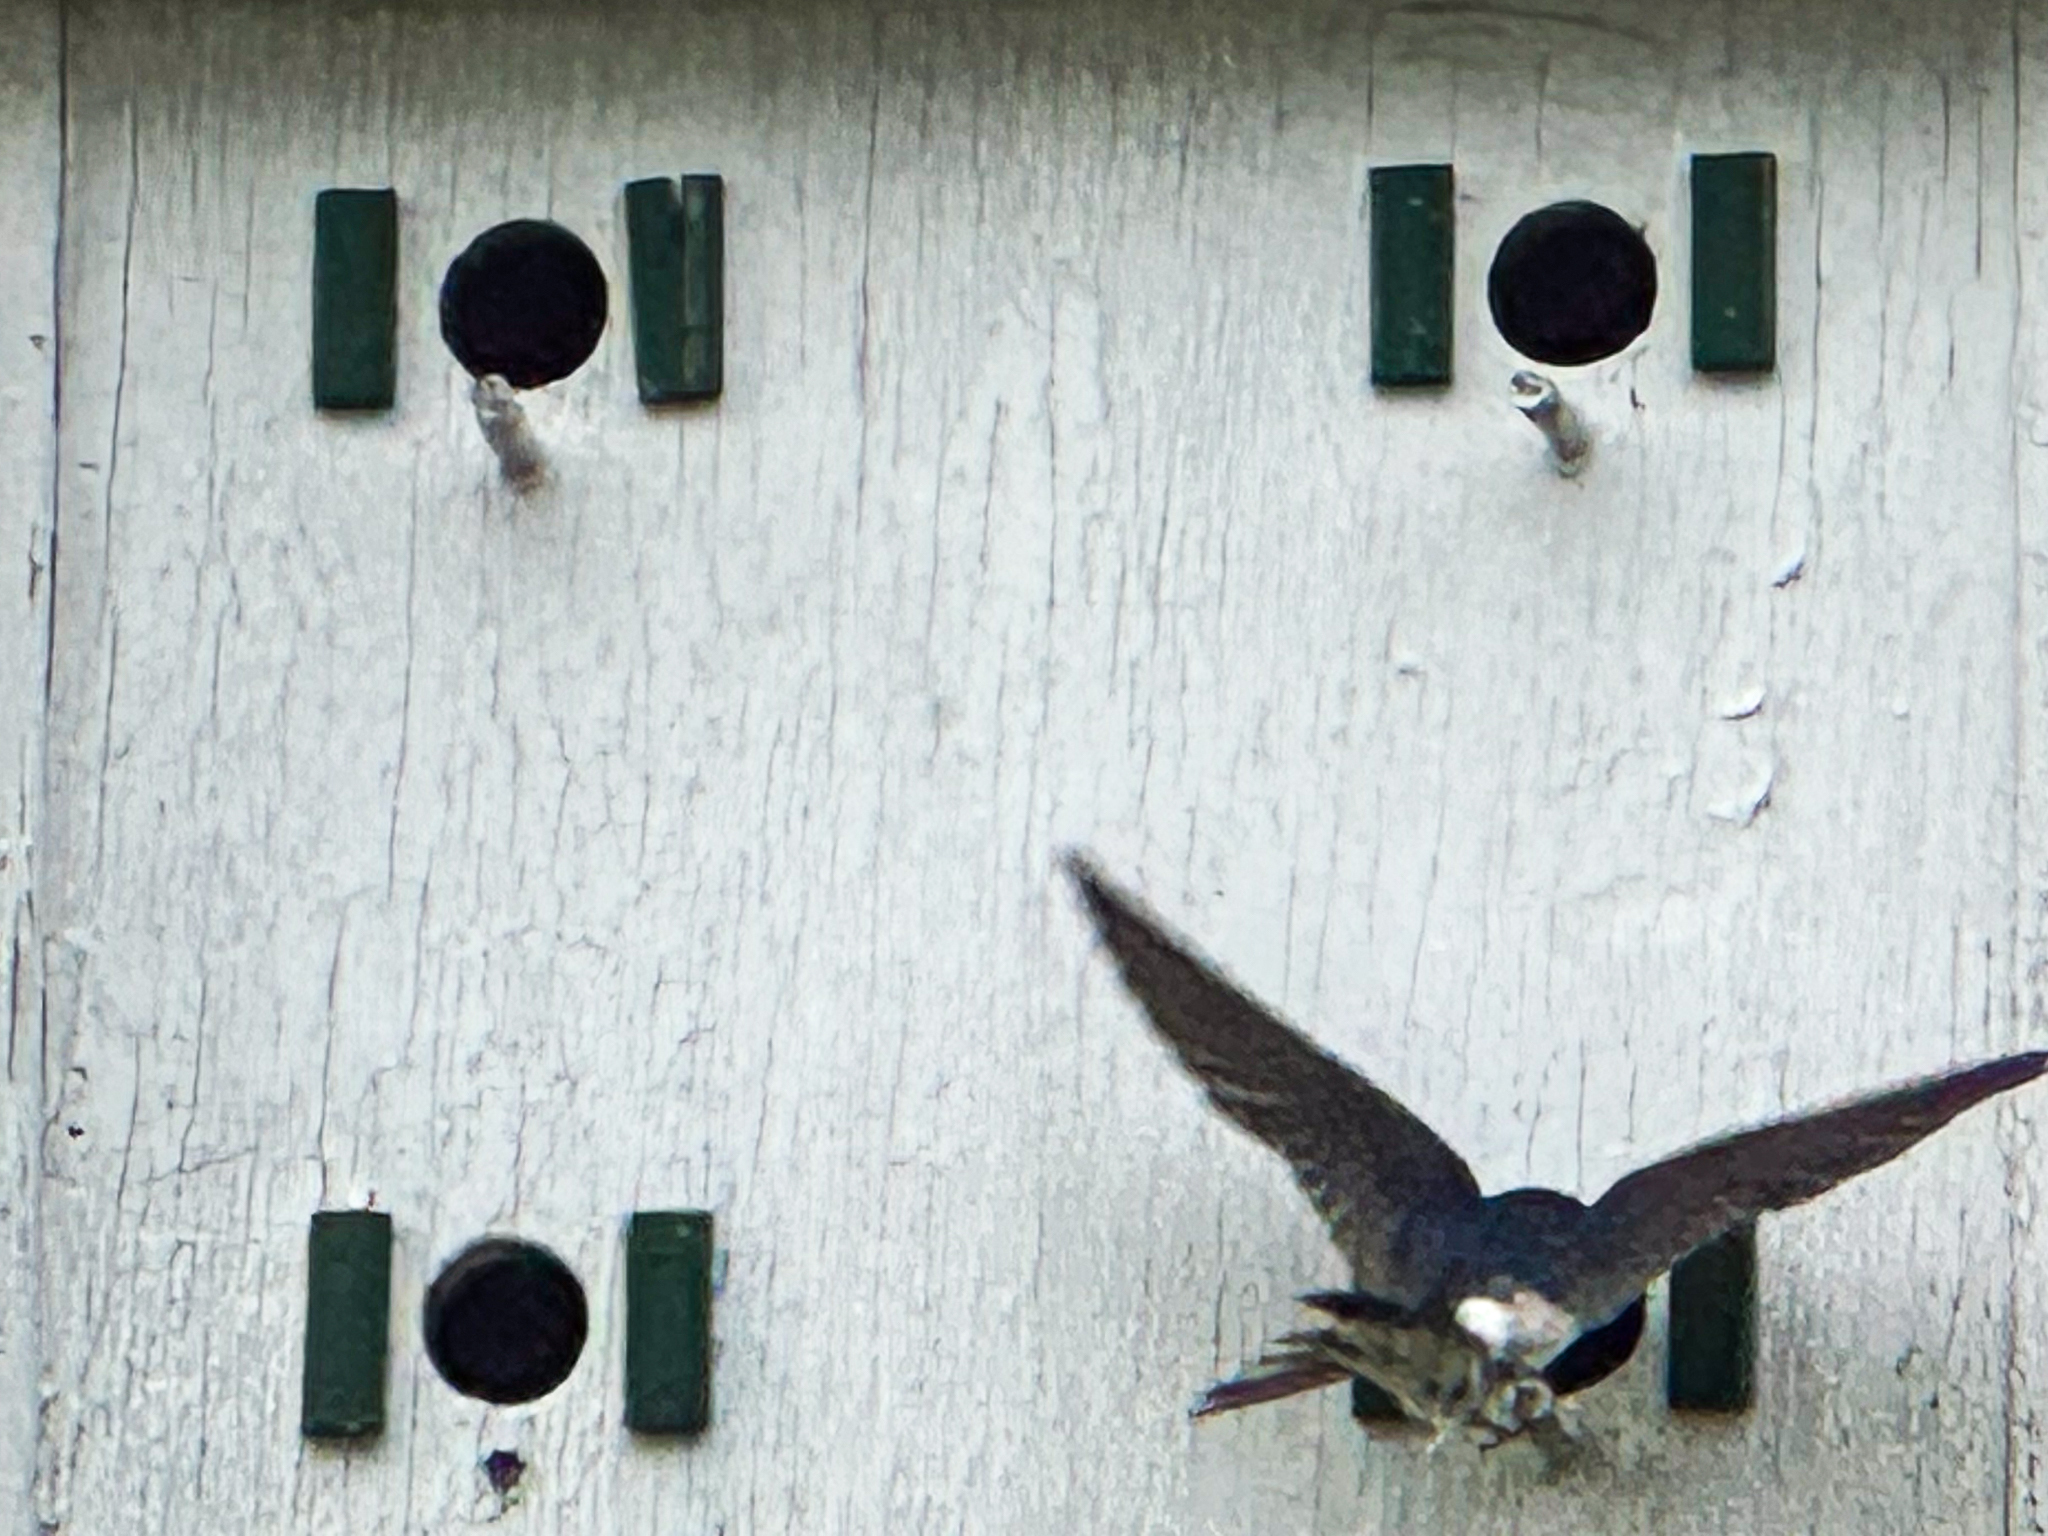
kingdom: Animalia
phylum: Chordata
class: Aves
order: Passeriformes
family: Hirundinidae
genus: Tachycineta
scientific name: Tachycineta bicolor
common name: Tree swallow
